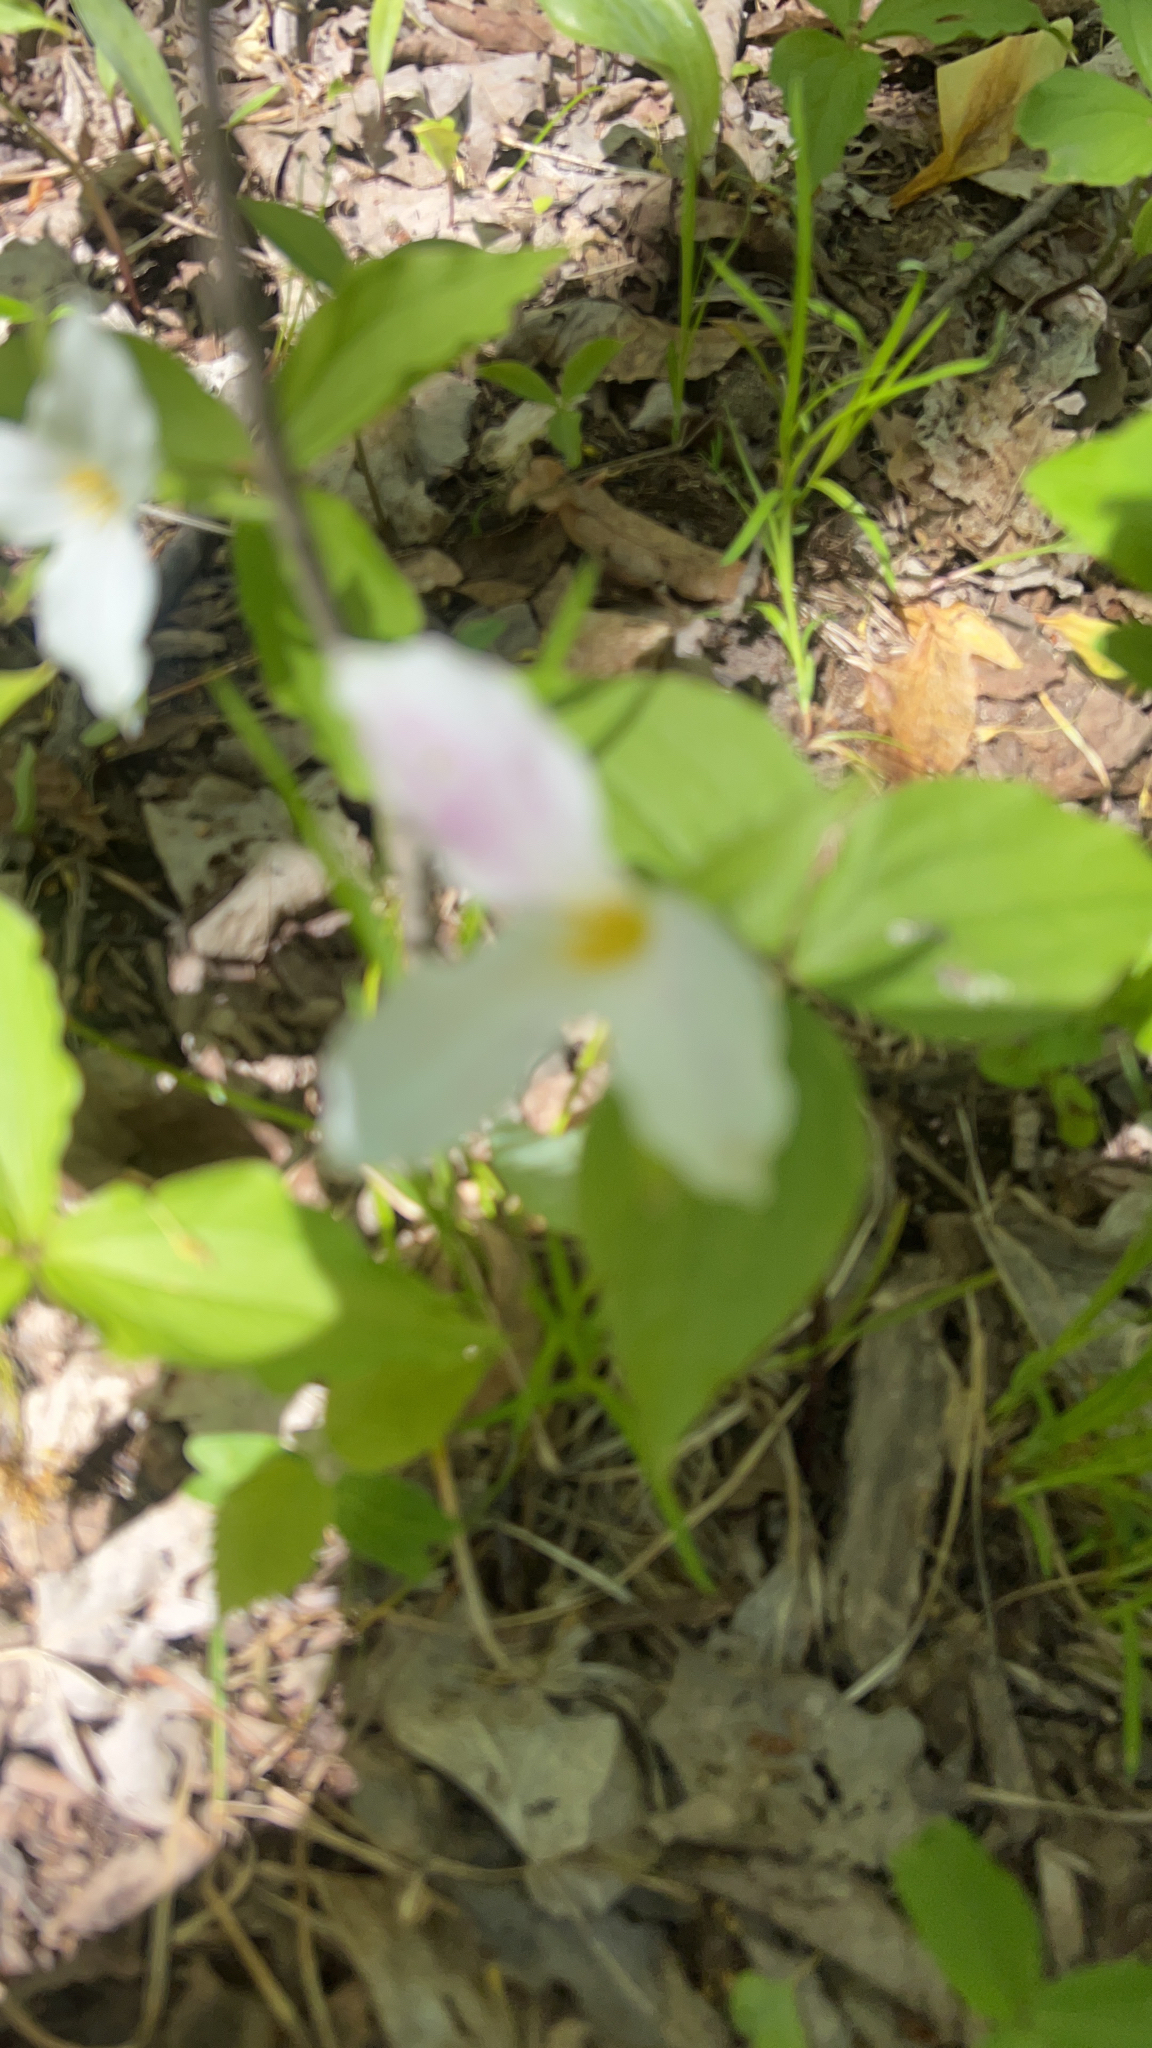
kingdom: Plantae
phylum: Tracheophyta
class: Liliopsida
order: Liliales
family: Melanthiaceae
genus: Trillium
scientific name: Trillium grandiflorum
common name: Great white trillium
